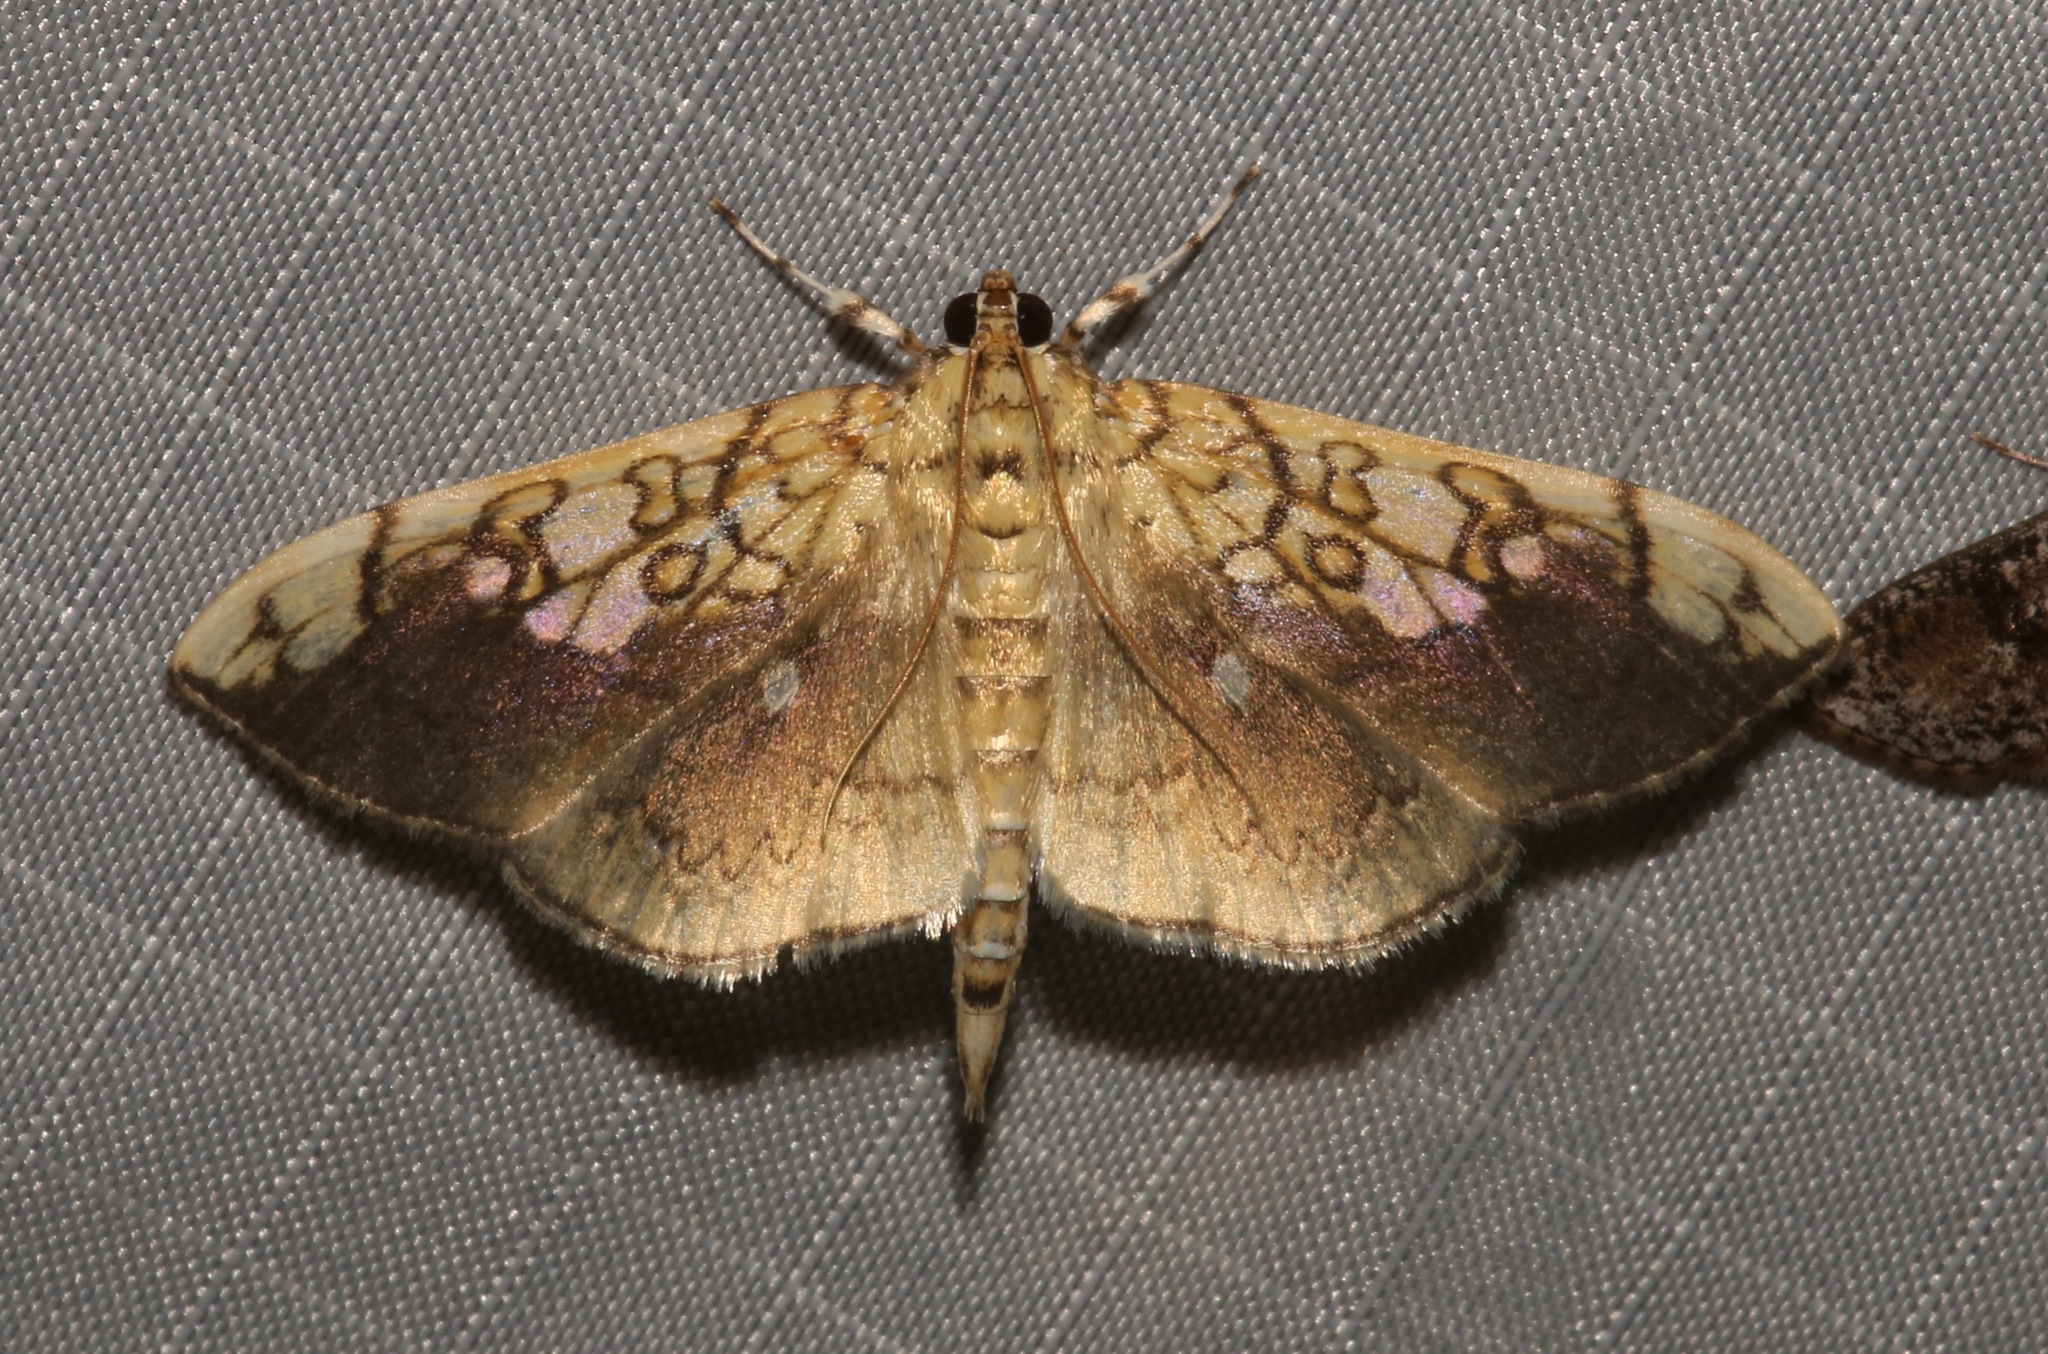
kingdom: Animalia
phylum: Arthropoda
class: Insecta
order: Lepidoptera
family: Crambidae
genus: Pantographa
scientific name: Pantographa limata
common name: Basswood leafroller moth
